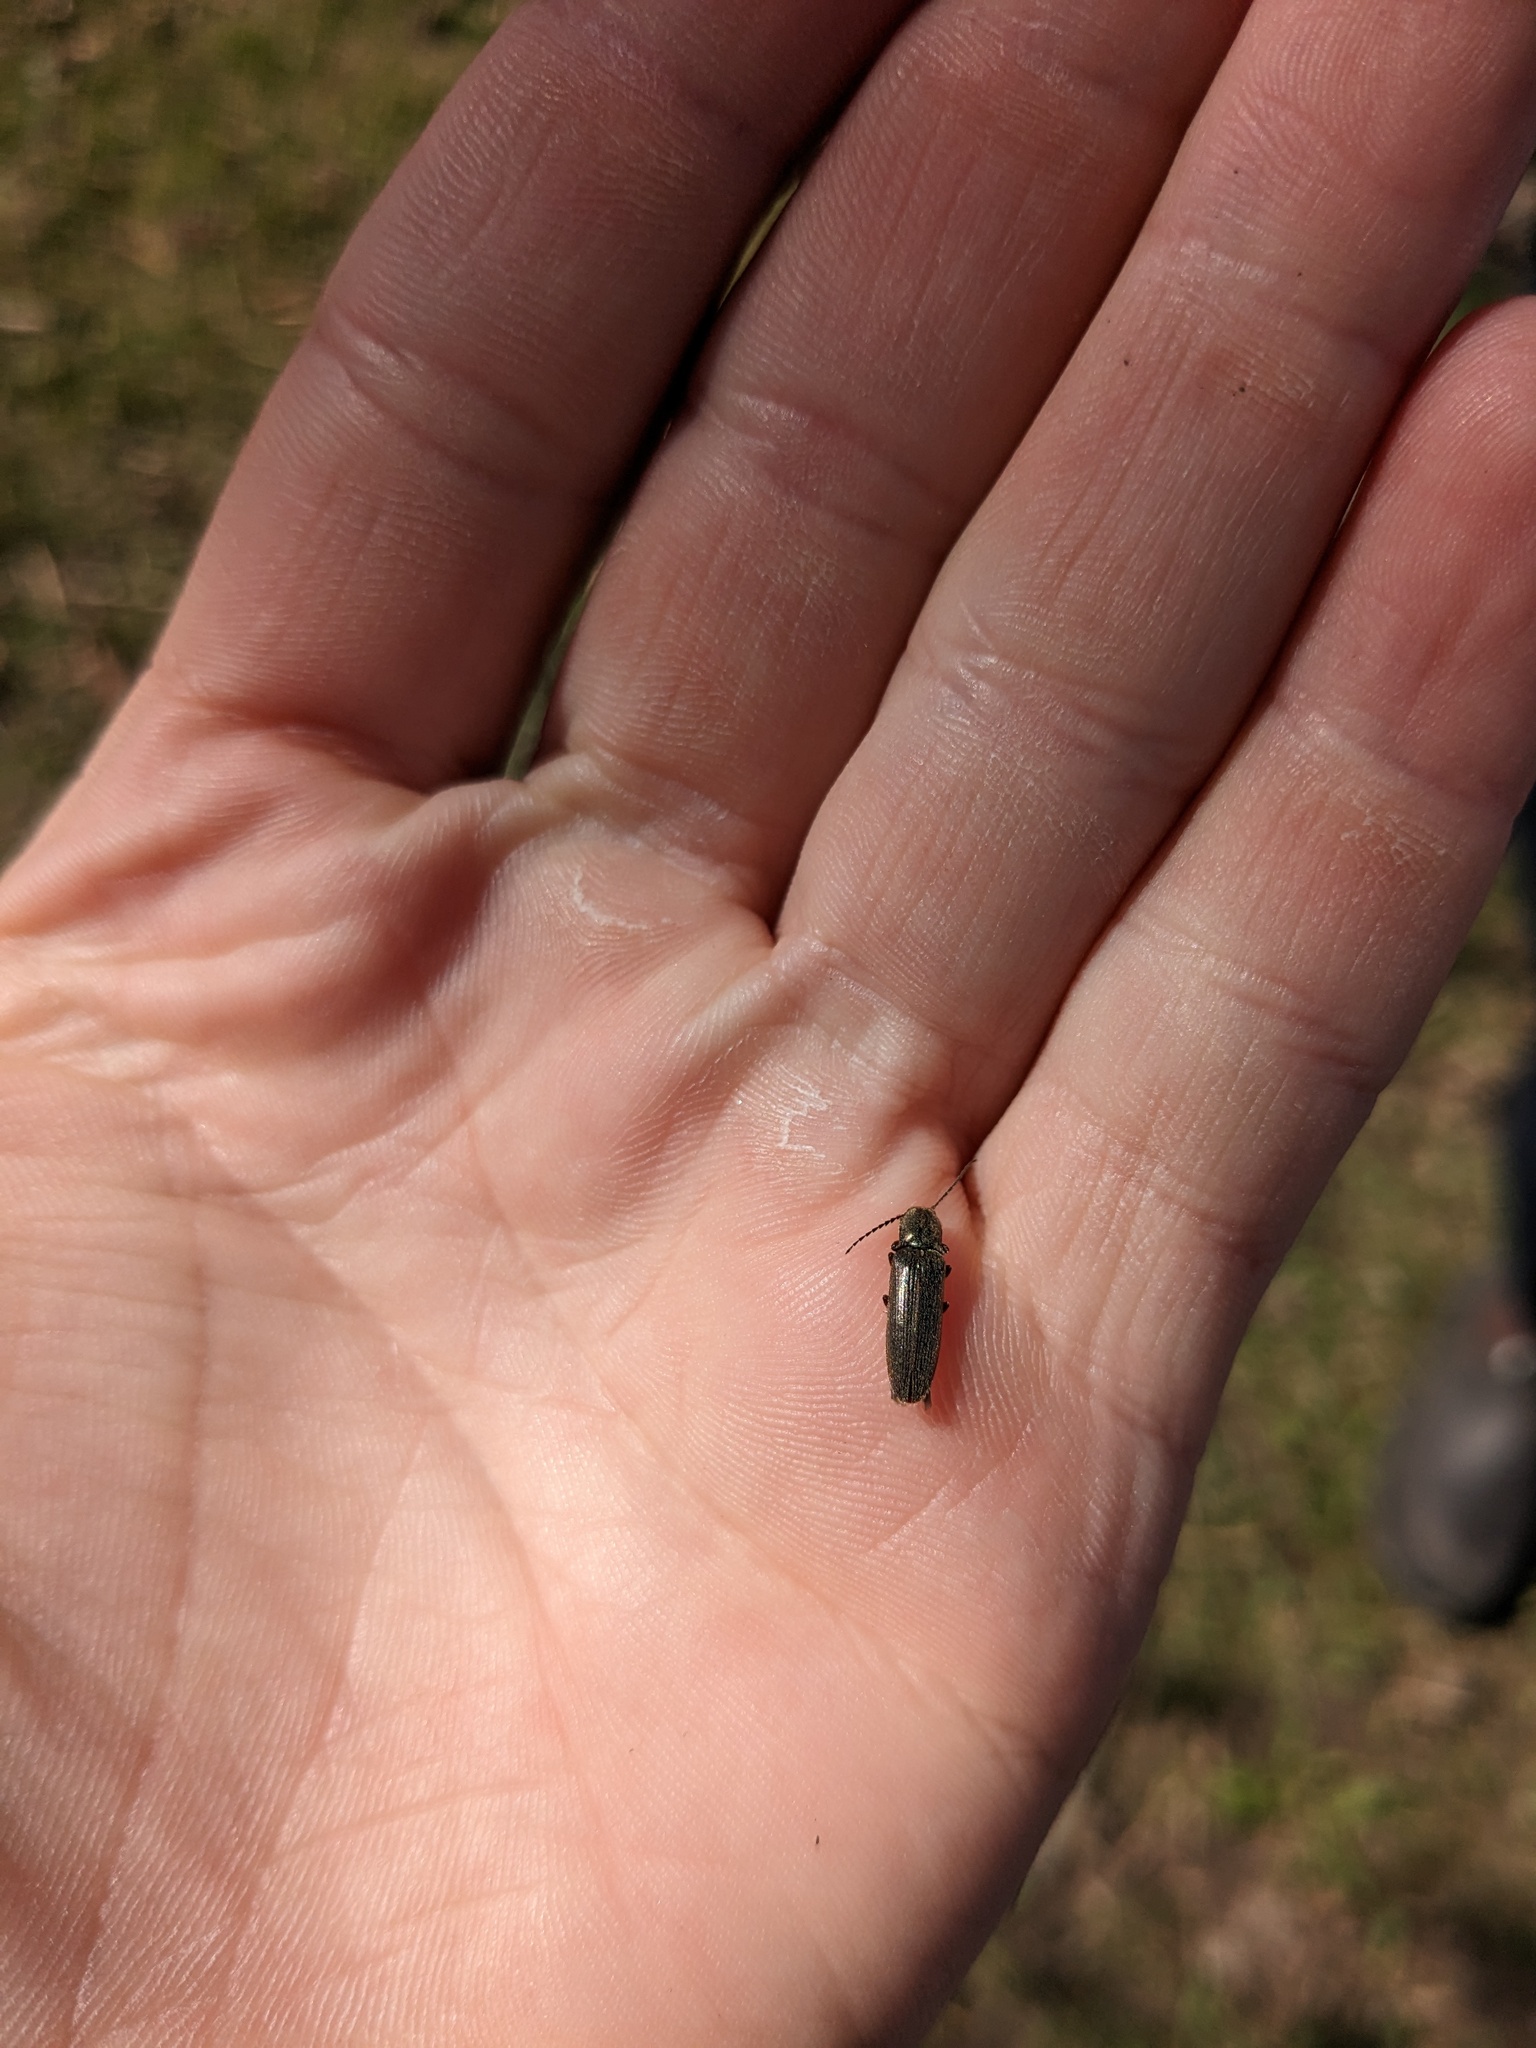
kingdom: Animalia
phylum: Arthropoda
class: Insecta
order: Coleoptera
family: Elateridae
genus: Sylvanelater
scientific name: Sylvanelater cylindriformis
